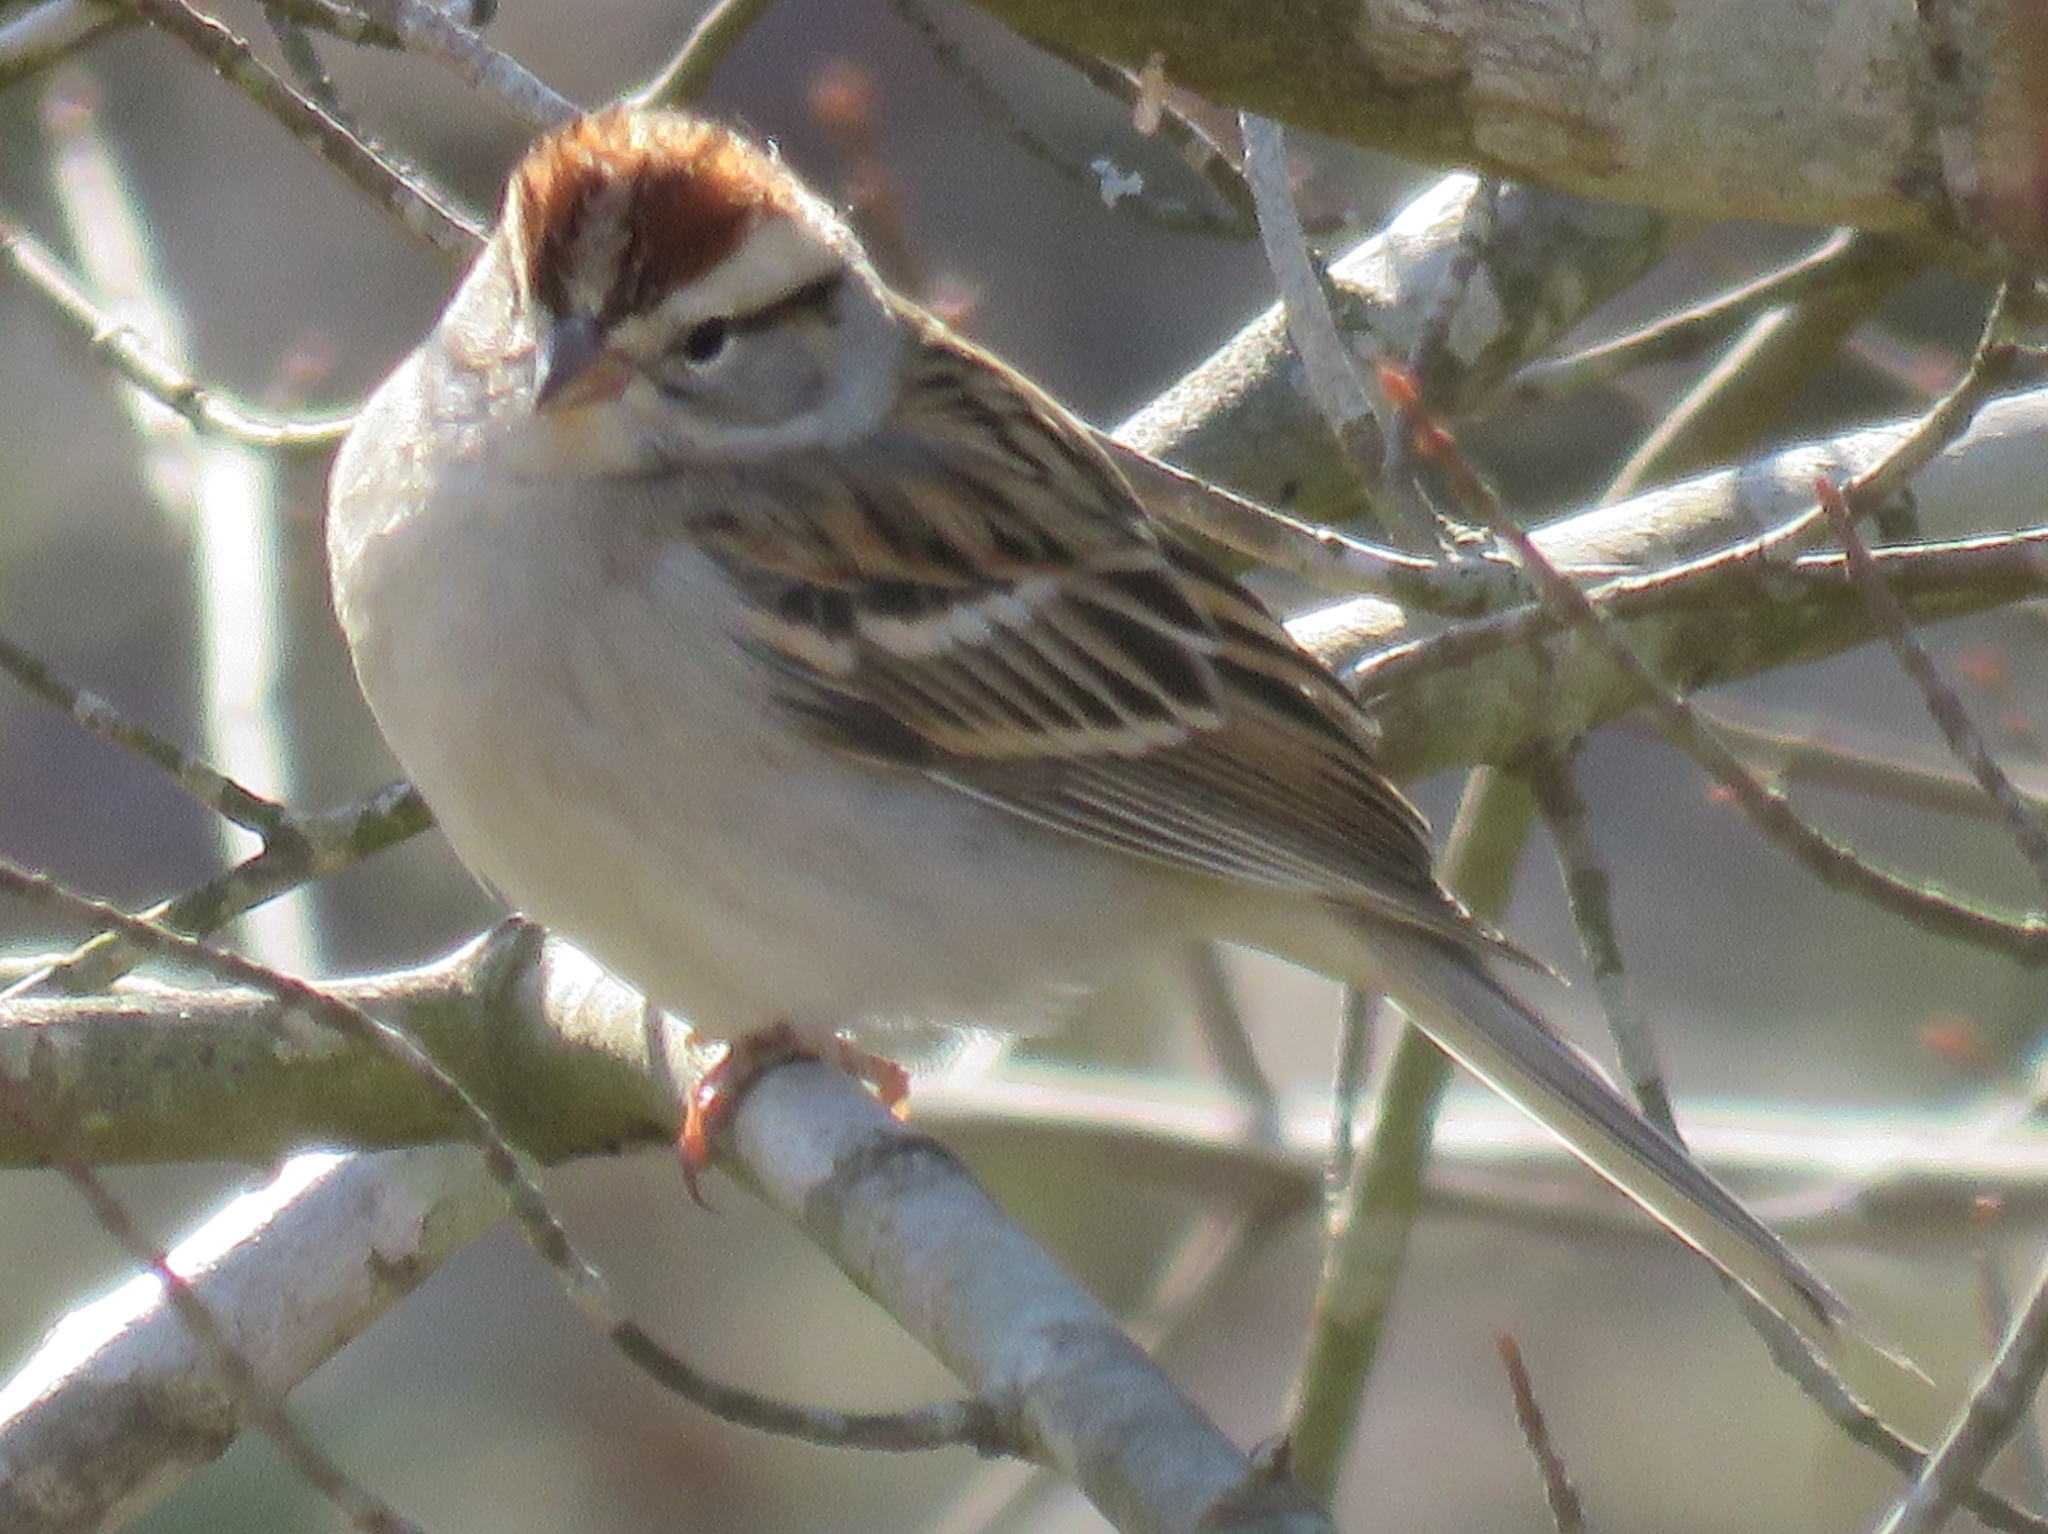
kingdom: Animalia
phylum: Chordata
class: Aves
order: Passeriformes
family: Passerellidae
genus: Spizella
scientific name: Spizella passerina
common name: Chipping sparrow
